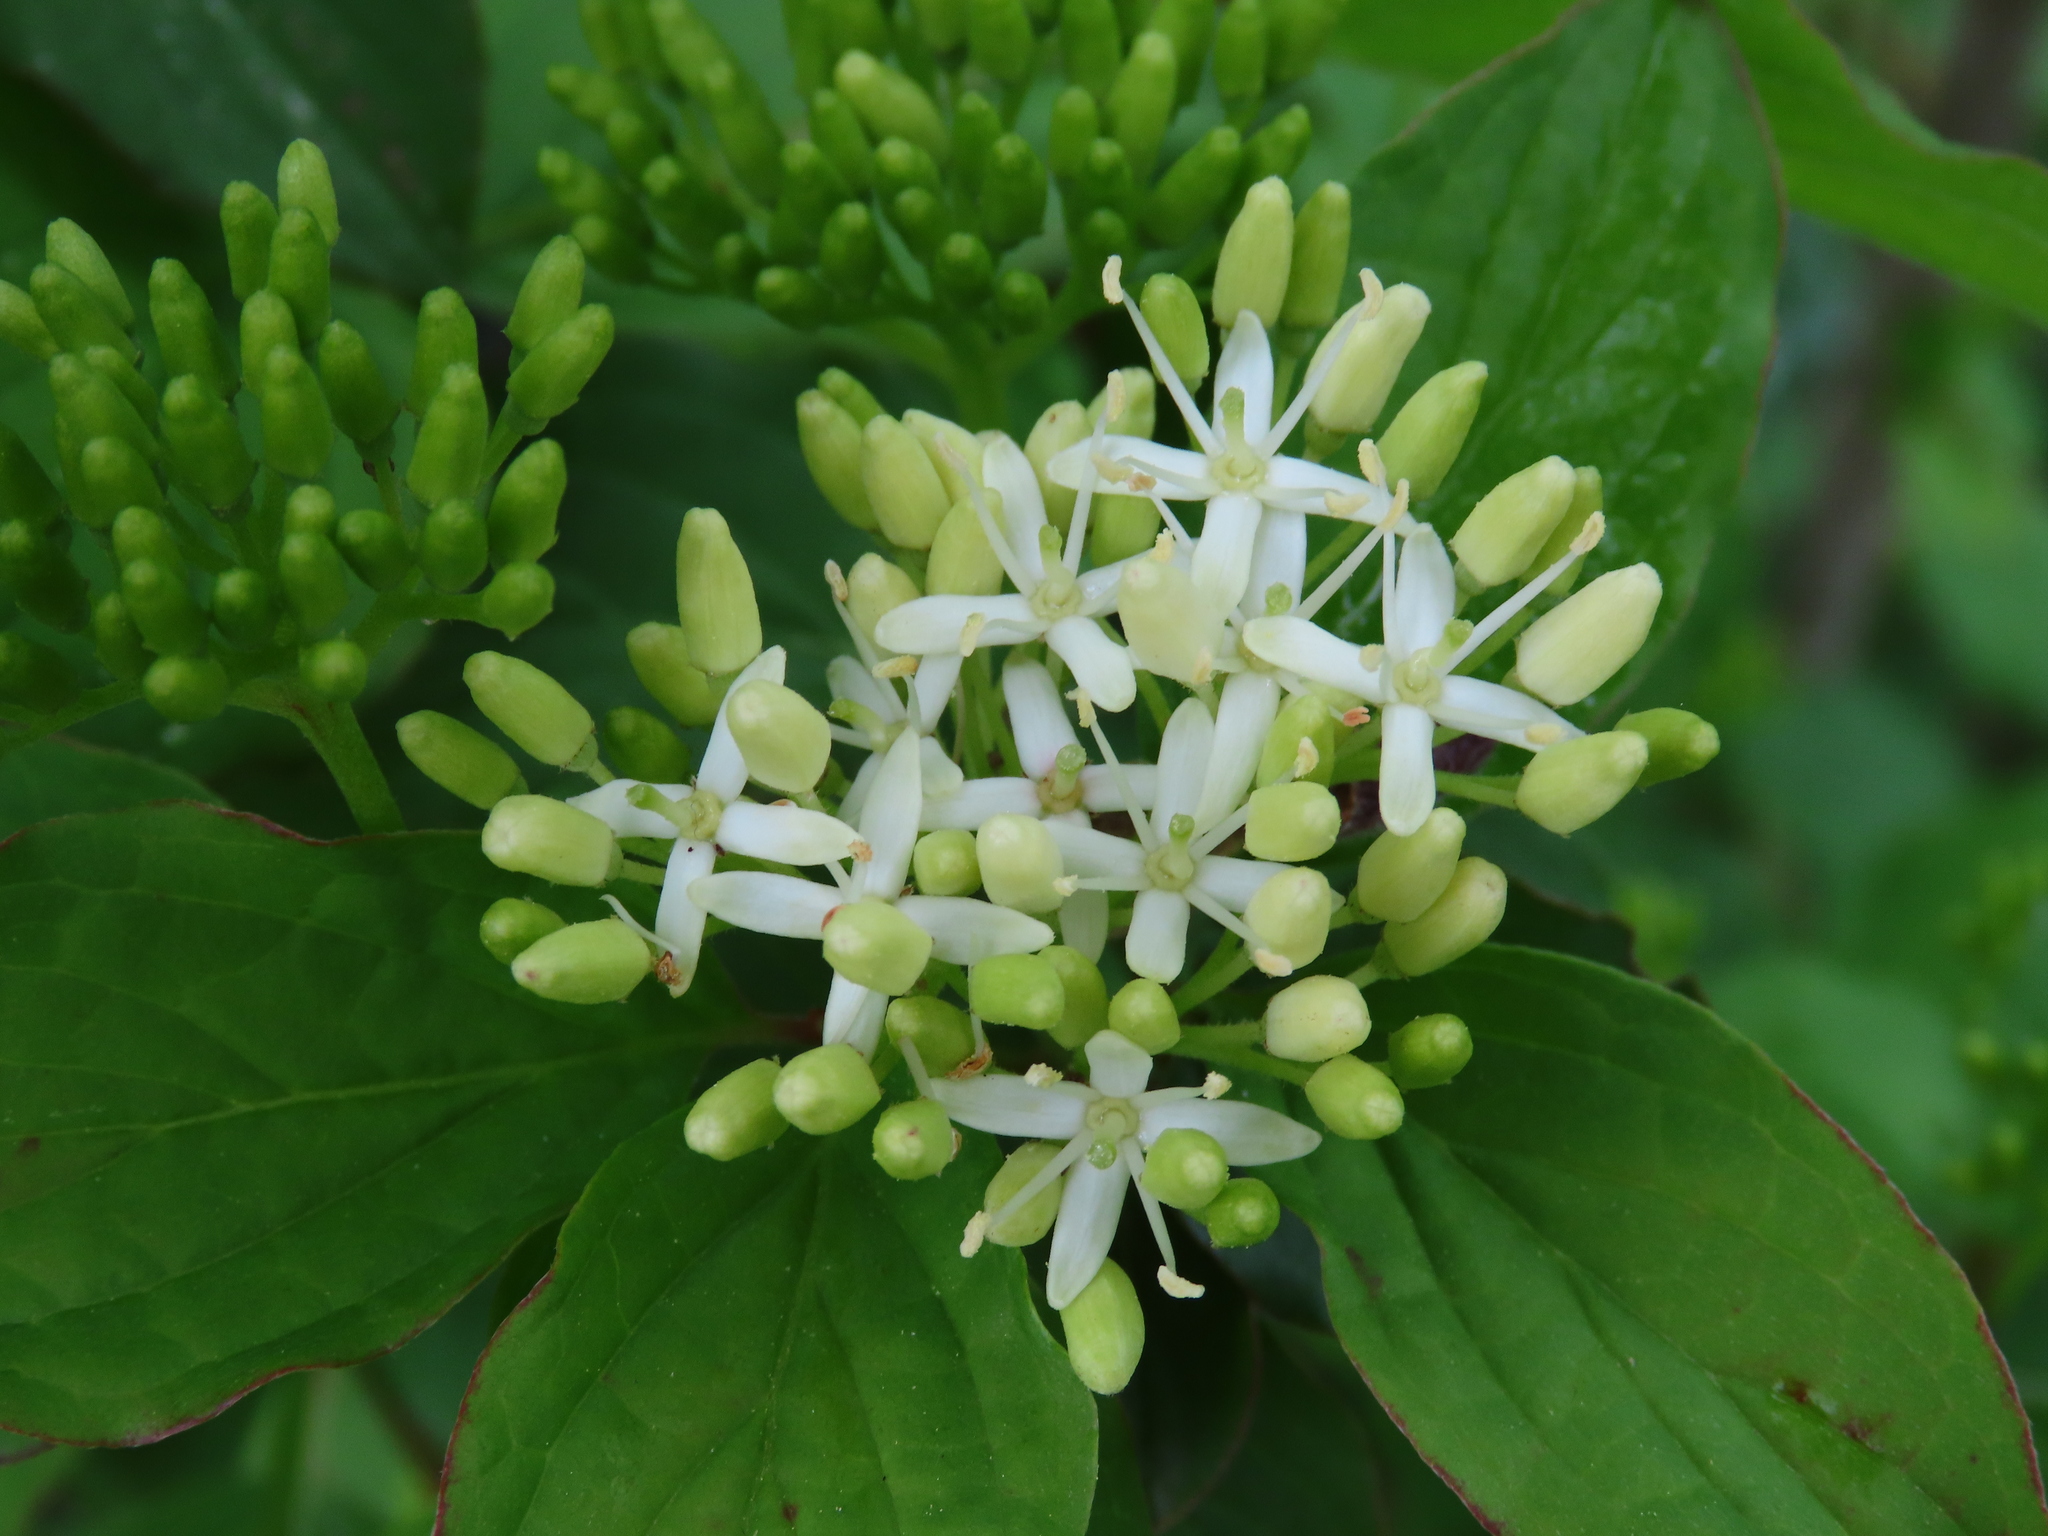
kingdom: Plantae
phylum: Tracheophyta
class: Magnoliopsida
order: Cornales
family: Cornaceae
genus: Cornus
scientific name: Cornus sanguinea
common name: Dogwood
